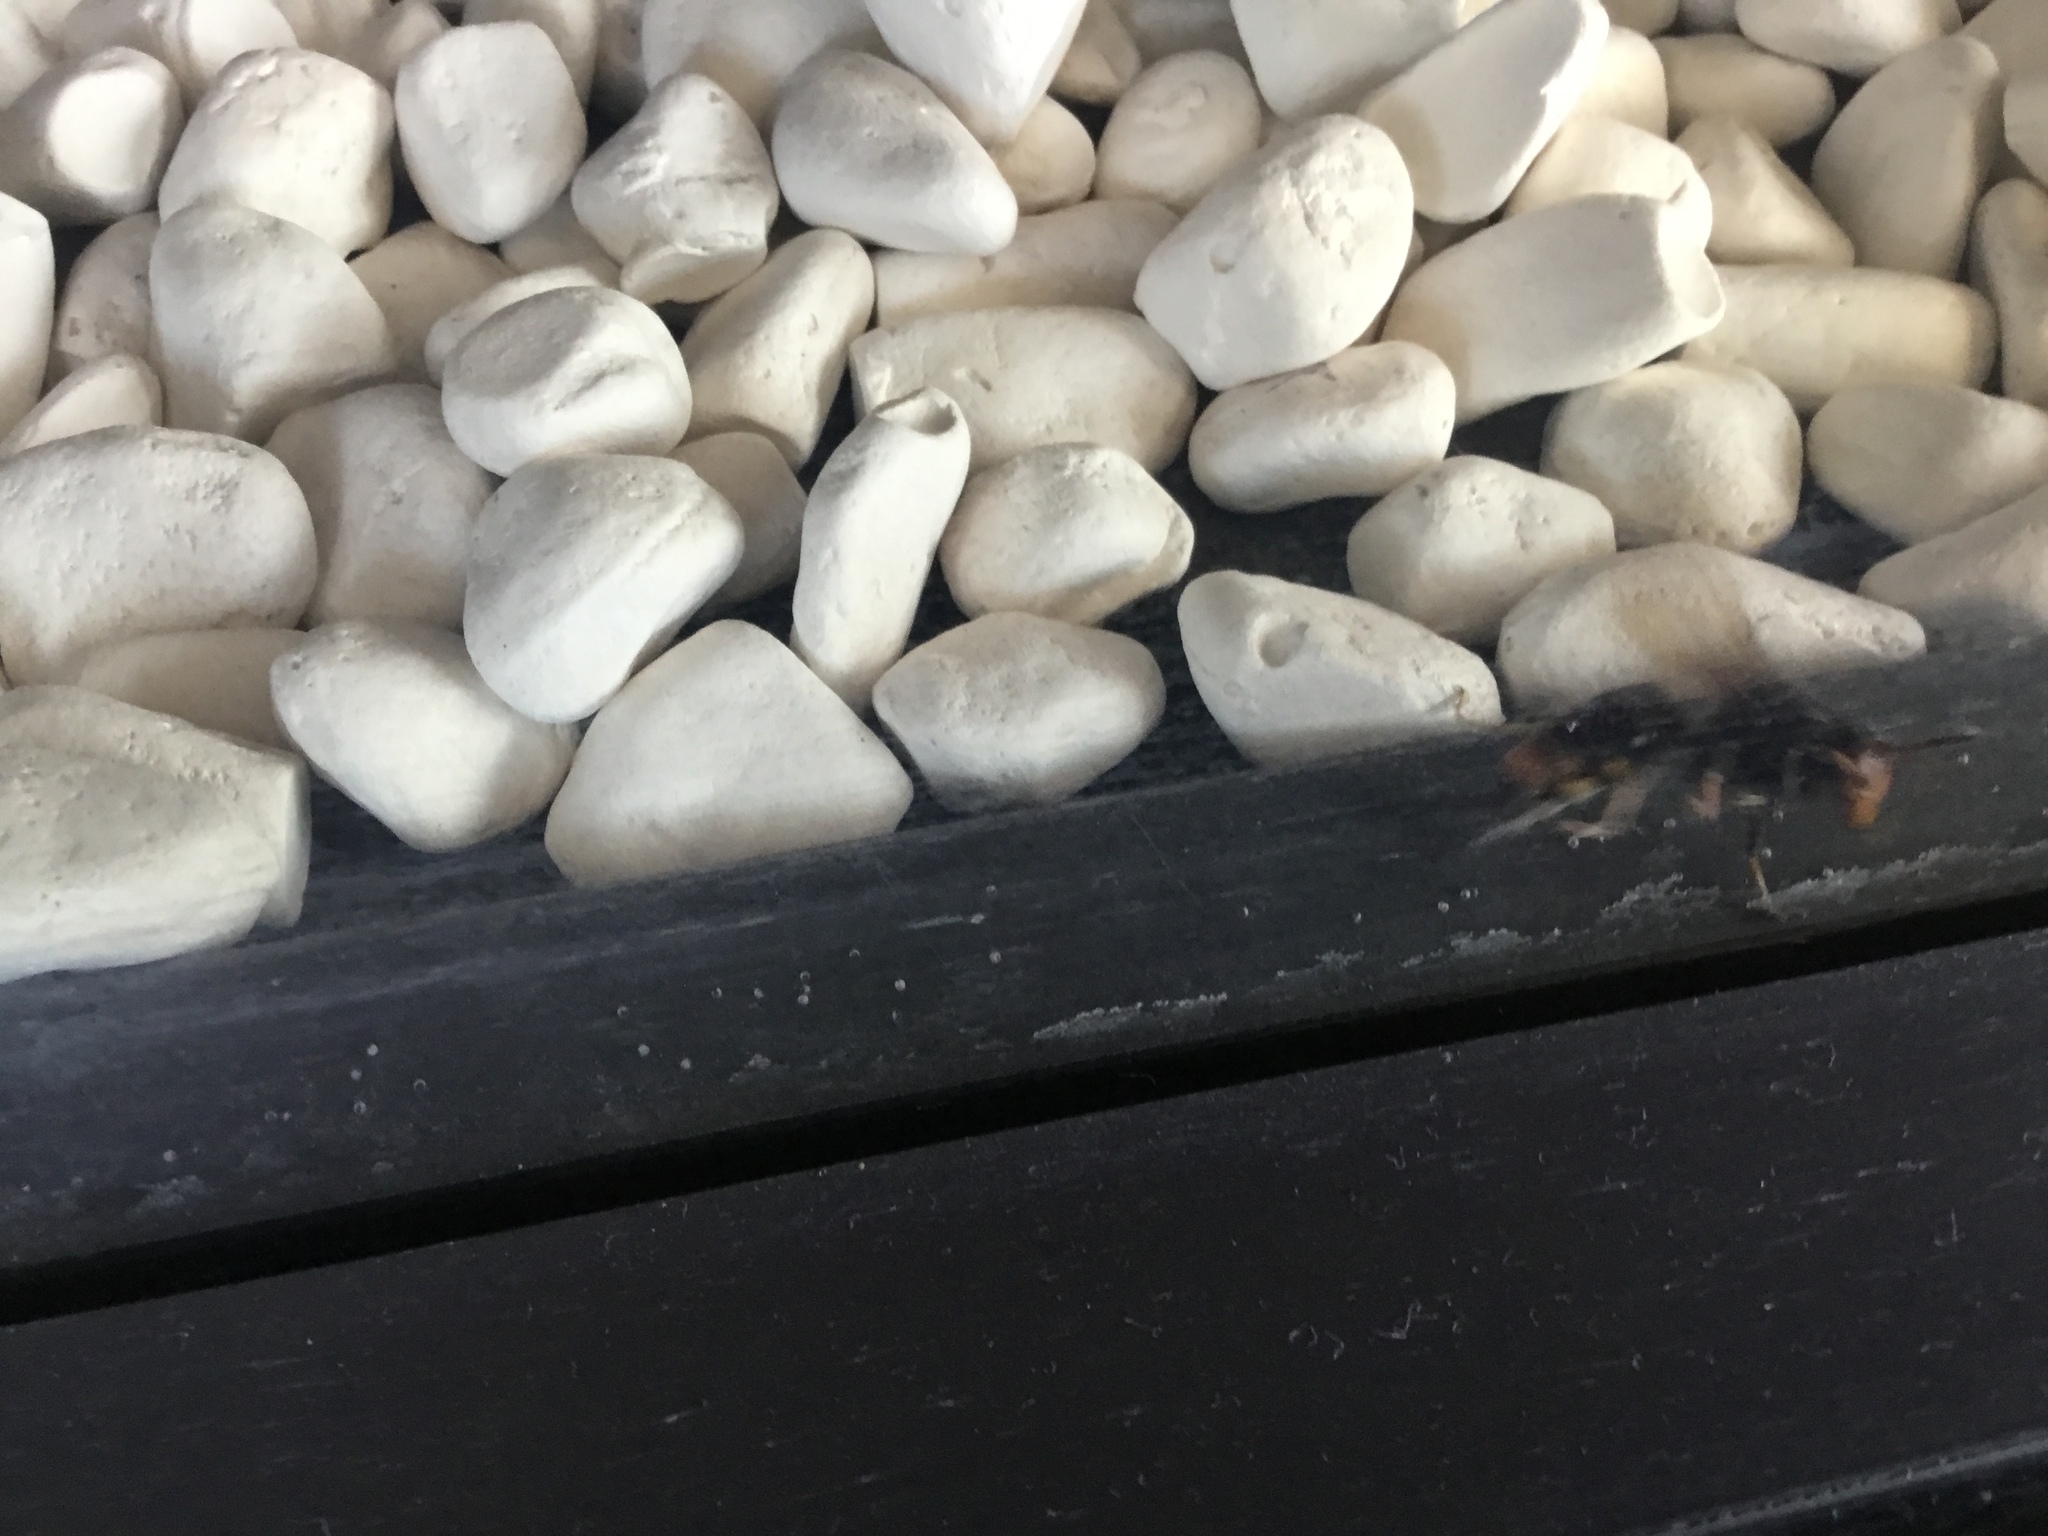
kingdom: Animalia
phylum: Arthropoda
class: Insecta
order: Hymenoptera
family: Vespidae
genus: Vespa
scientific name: Vespa velutina
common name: Asian hornet
